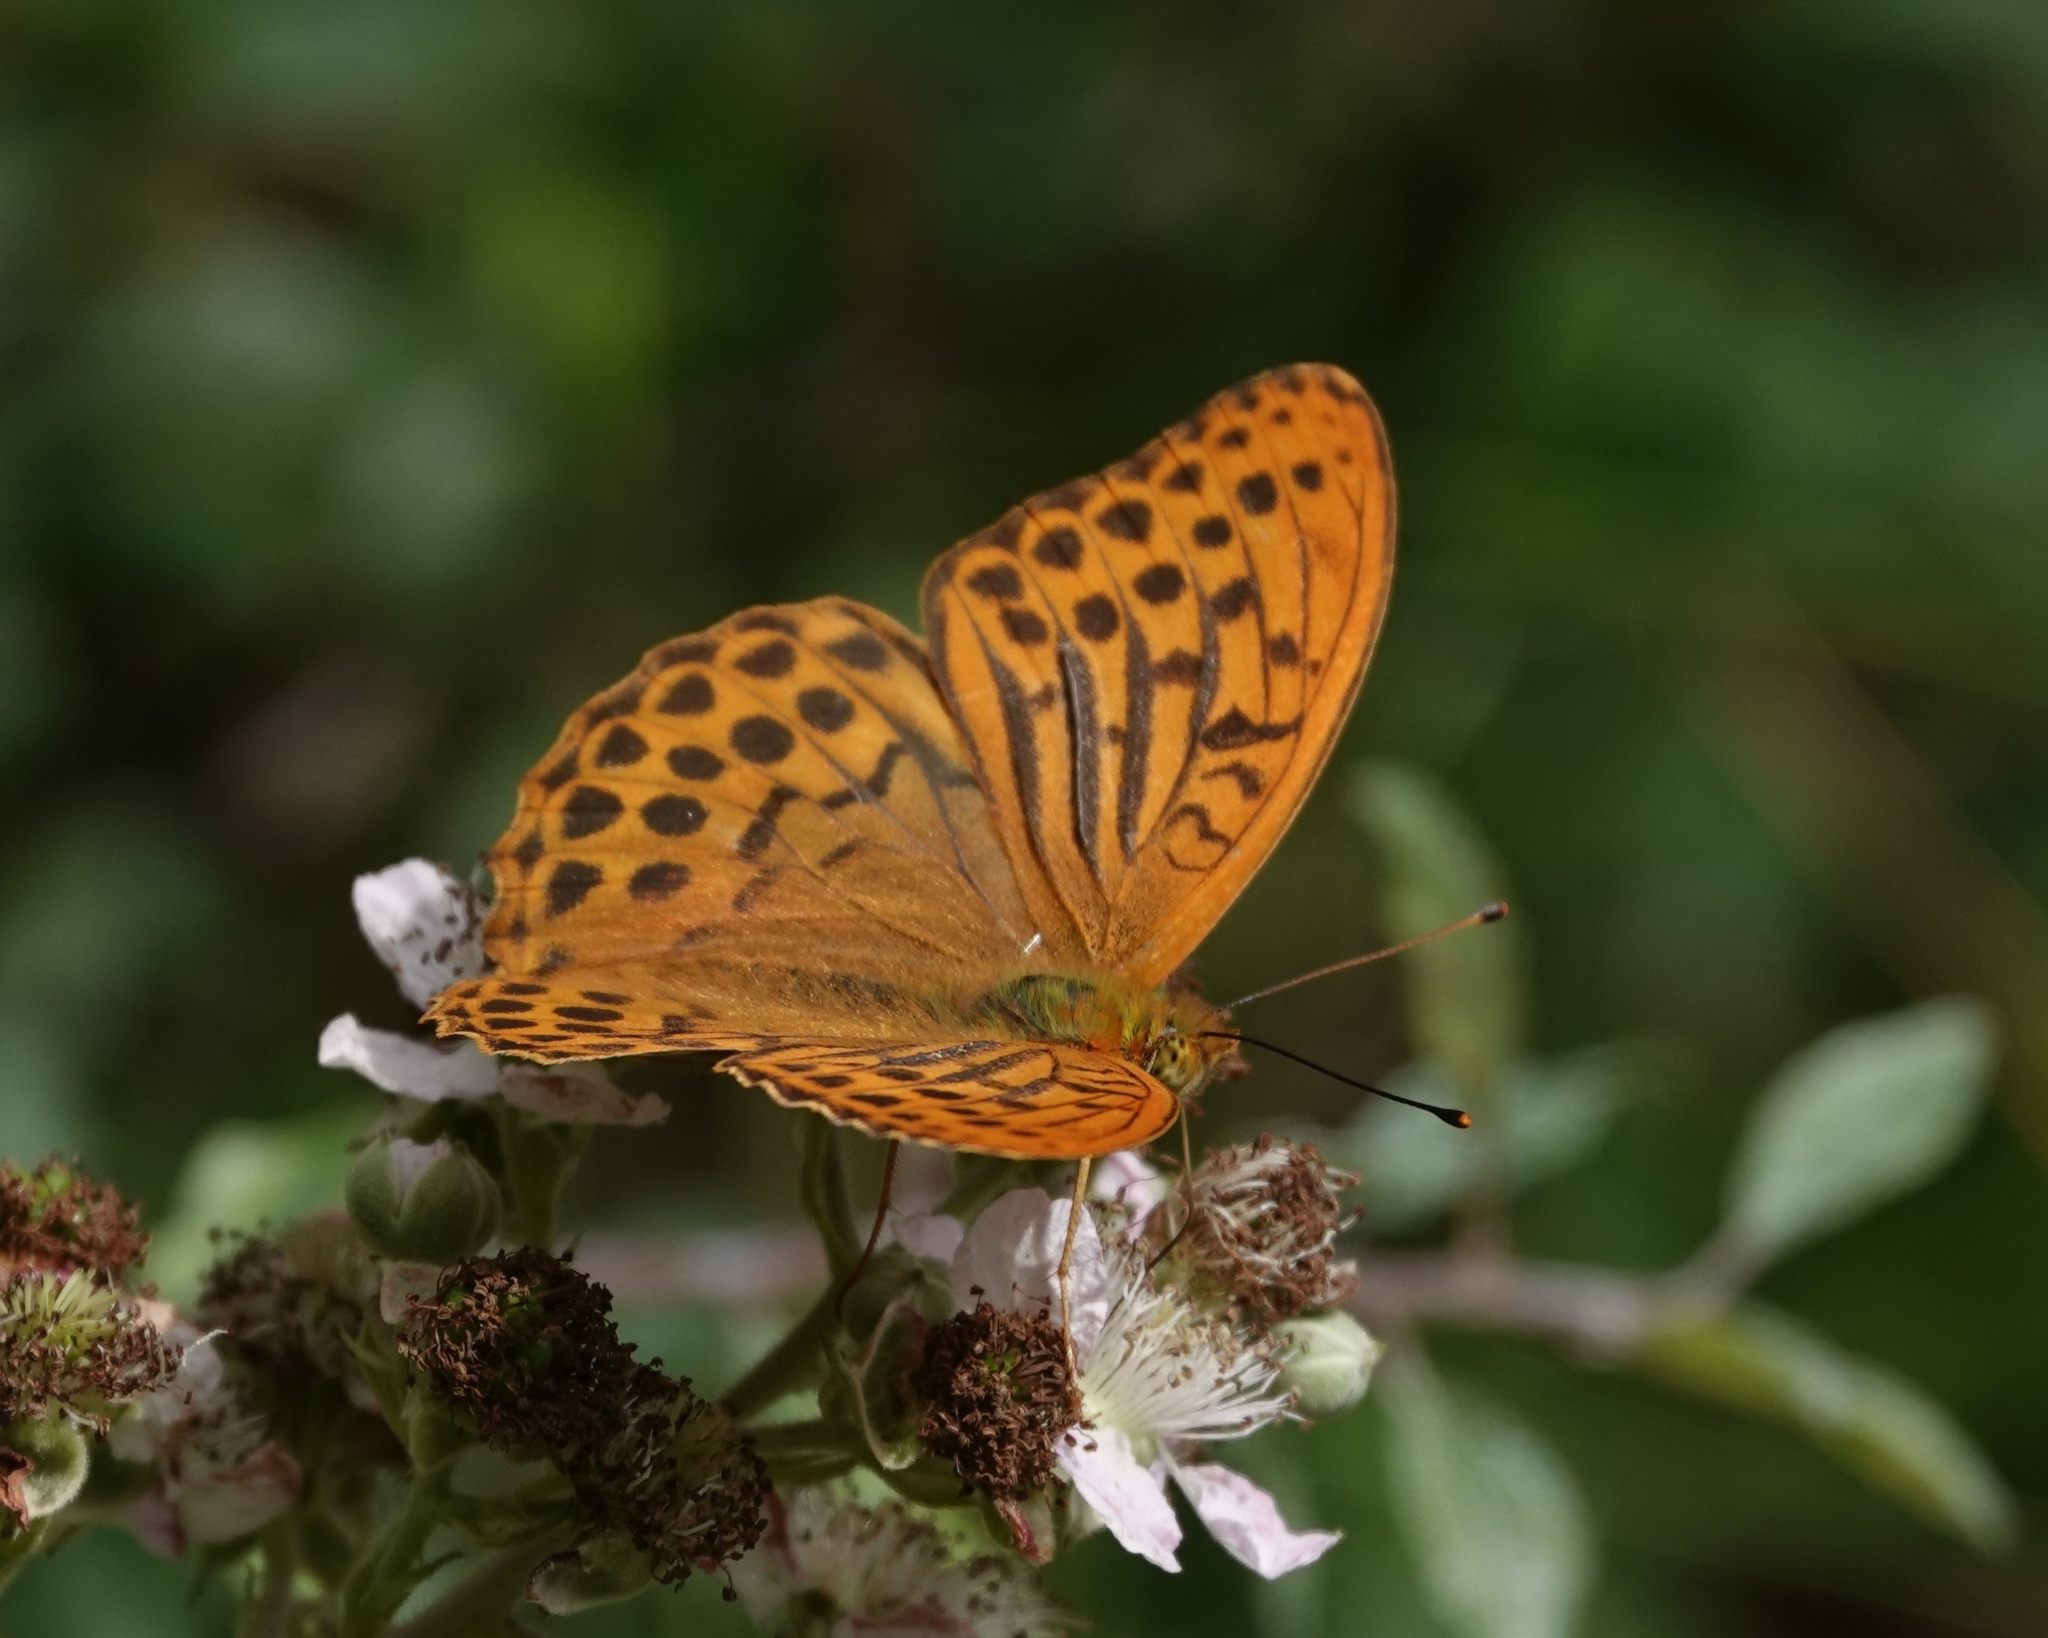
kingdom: Animalia
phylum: Arthropoda
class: Insecta
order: Lepidoptera
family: Nymphalidae
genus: Argynnis
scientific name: Argynnis paphia
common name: Silver-washed fritillary
